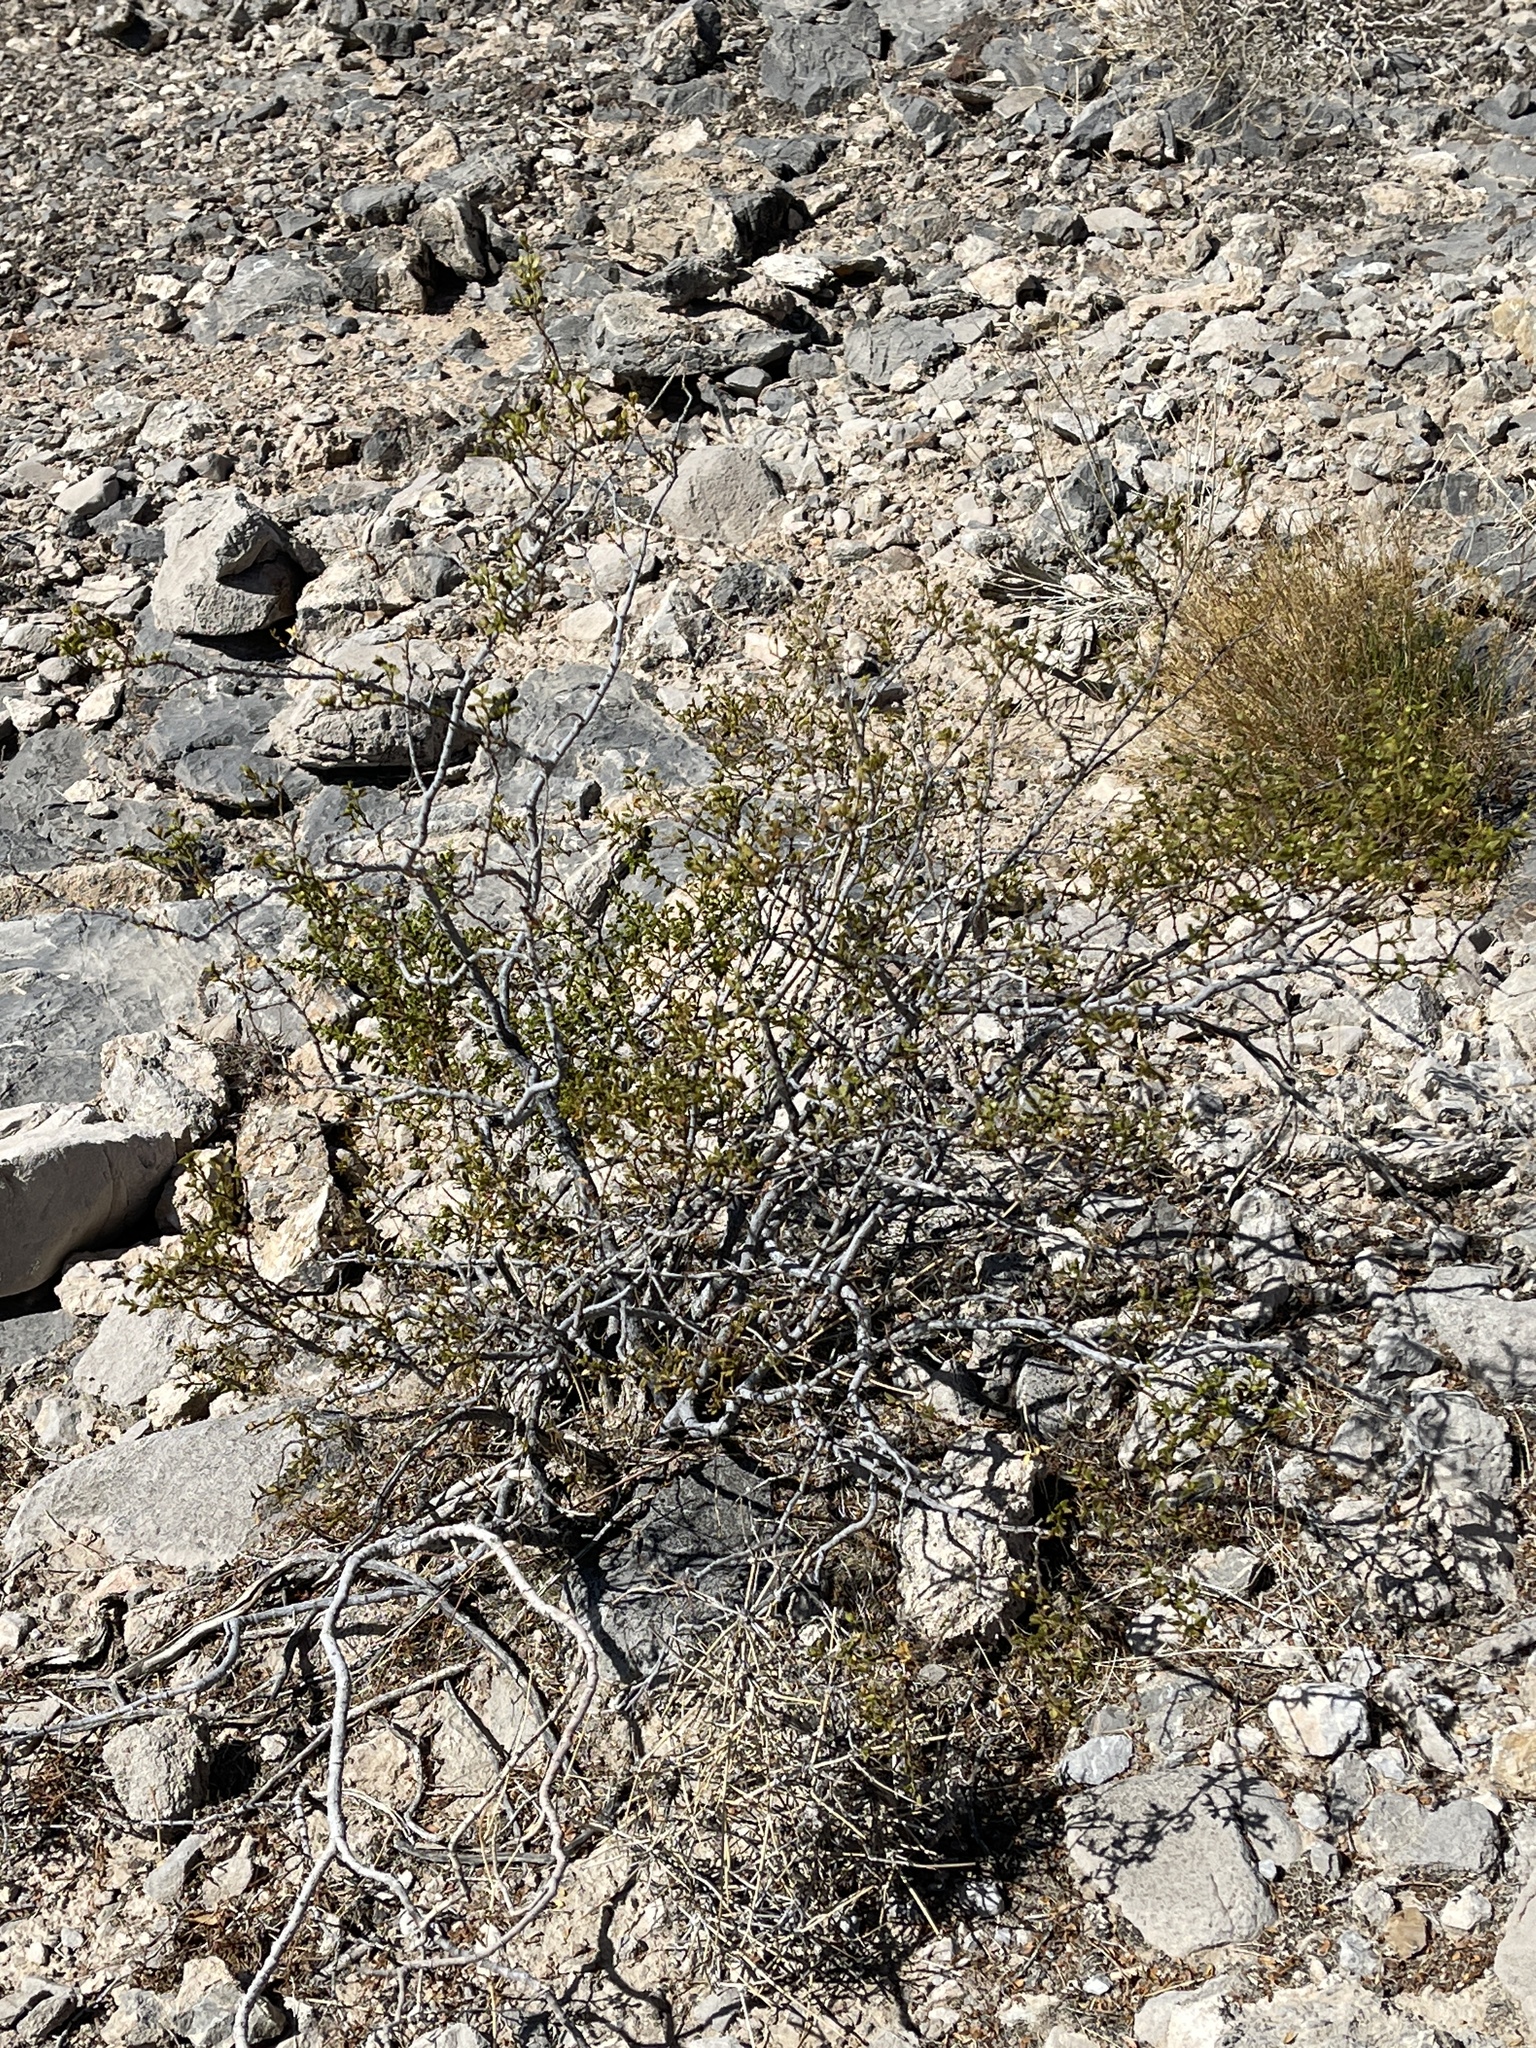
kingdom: Plantae
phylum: Tracheophyta
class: Magnoliopsida
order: Zygophyllales
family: Zygophyllaceae
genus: Larrea
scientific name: Larrea tridentata
